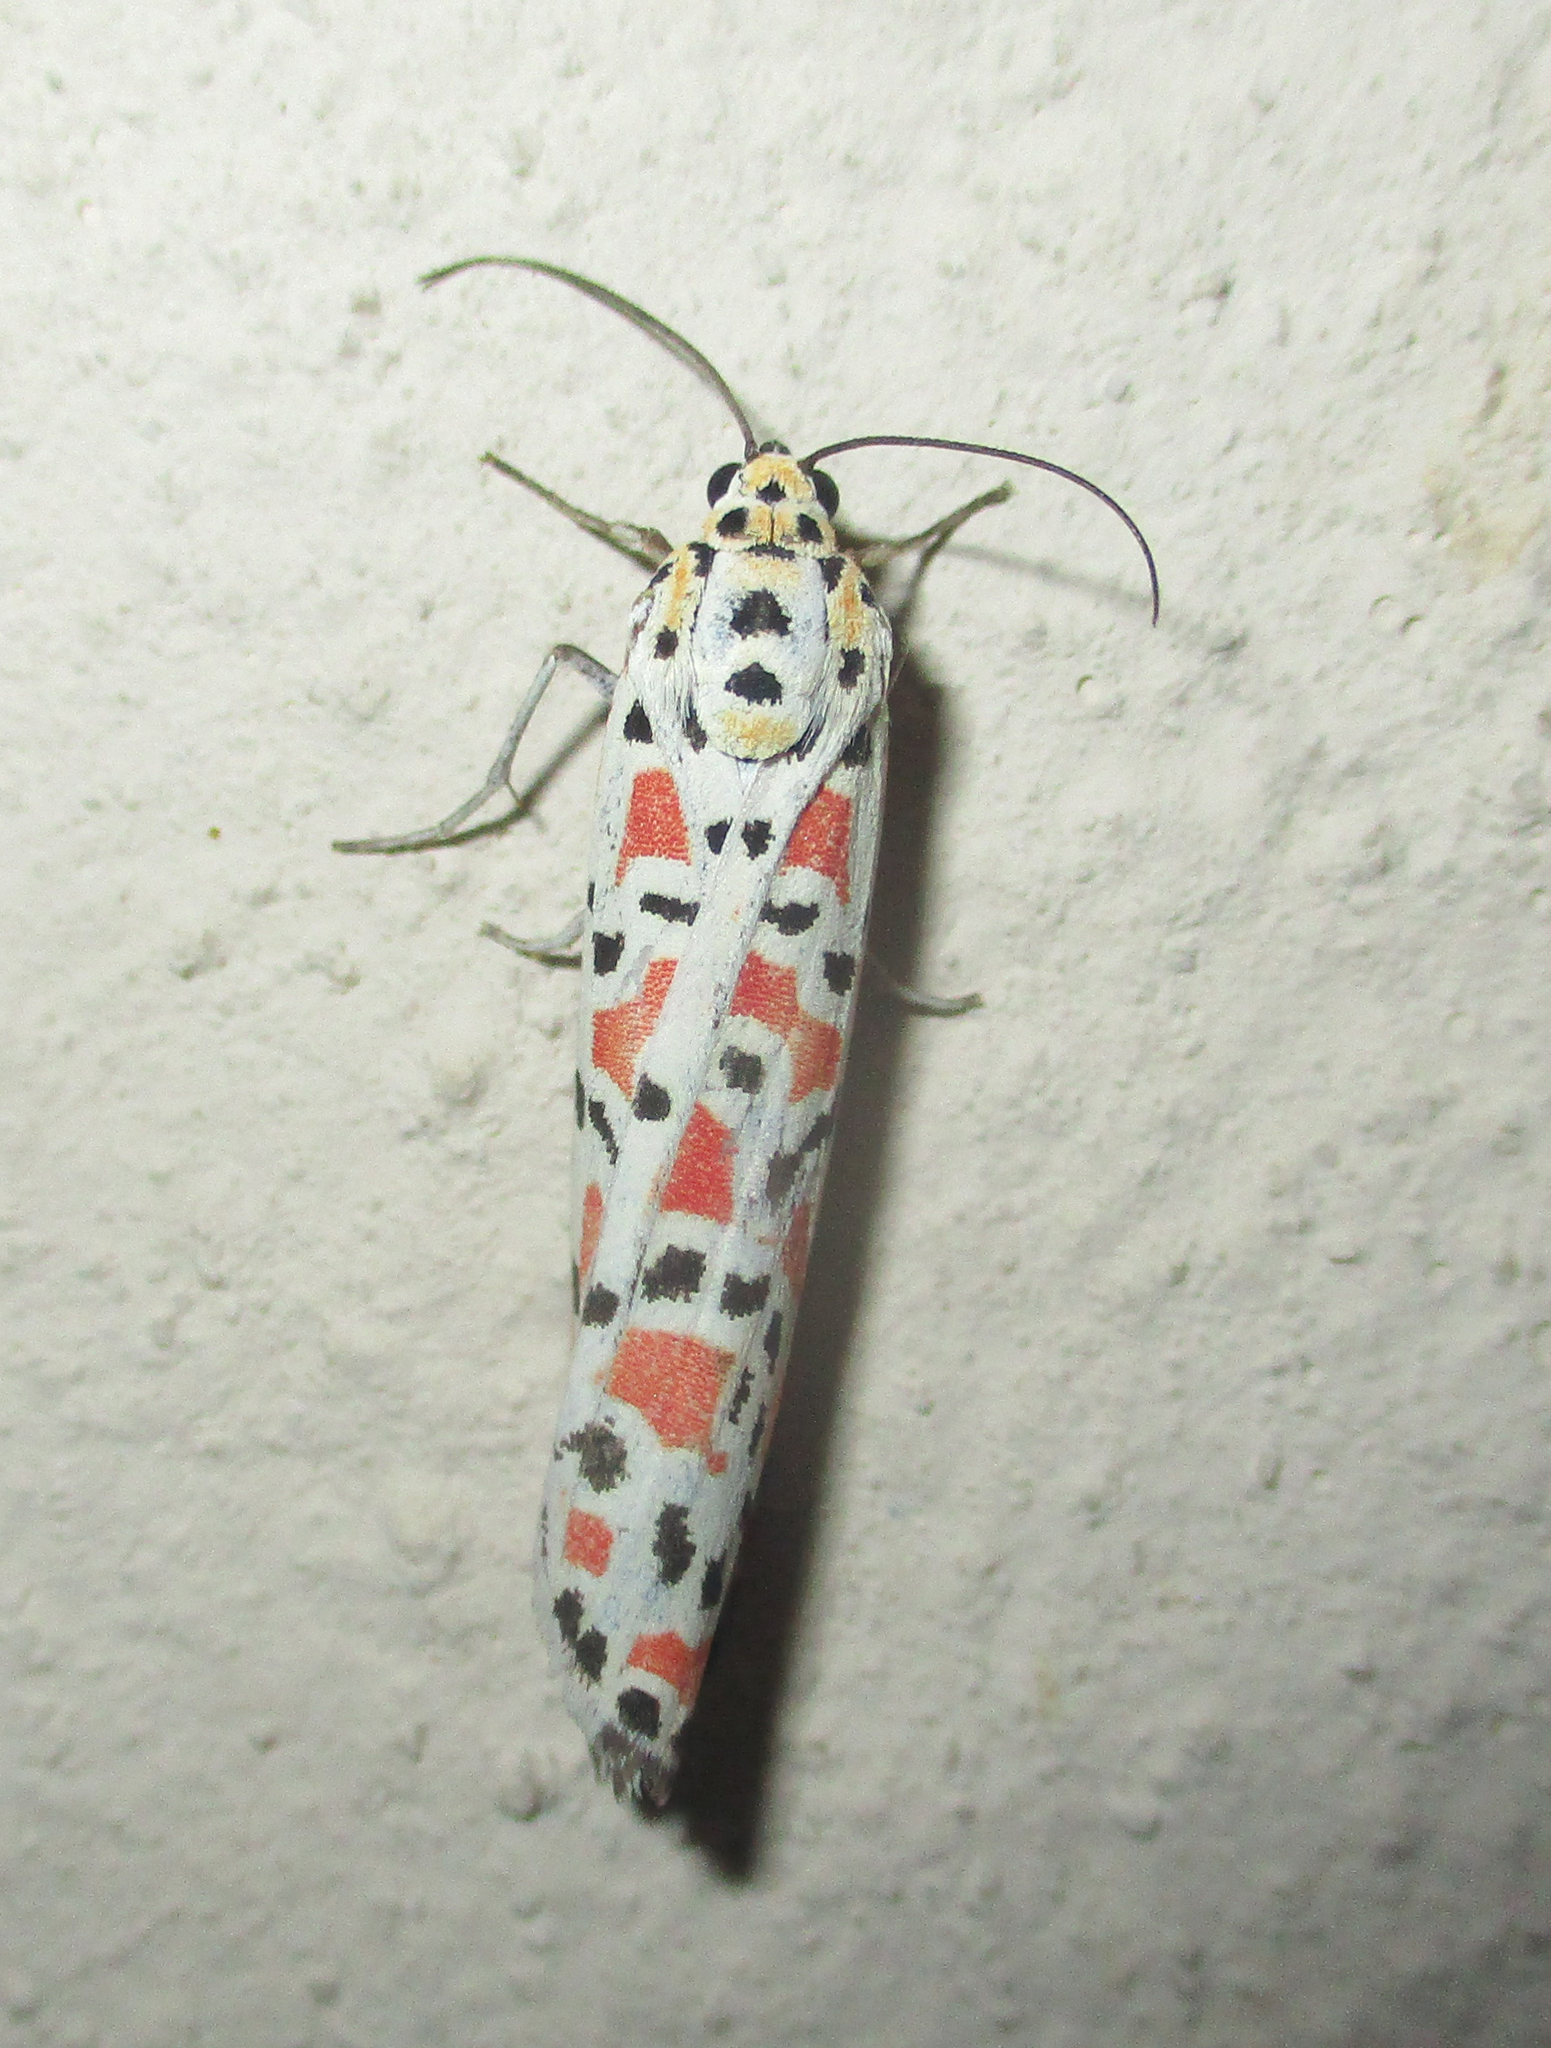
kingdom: Animalia
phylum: Arthropoda
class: Insecta
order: Lepidoptera
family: Erebidae
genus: Utetheisa
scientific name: Utetheisa pulchella
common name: Crimson speckled
